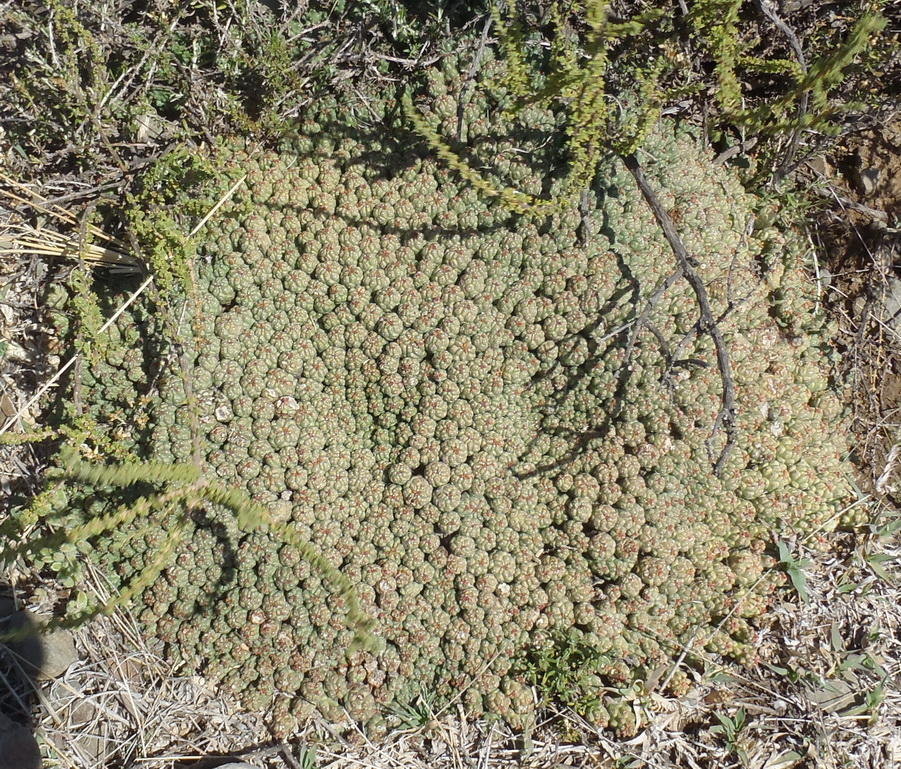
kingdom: Plantae
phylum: Tracheophyta
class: Magnoliopsida
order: Malpighiales
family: Euphorbiaceae
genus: Euphorbia
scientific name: Euphorbia clavarioides
